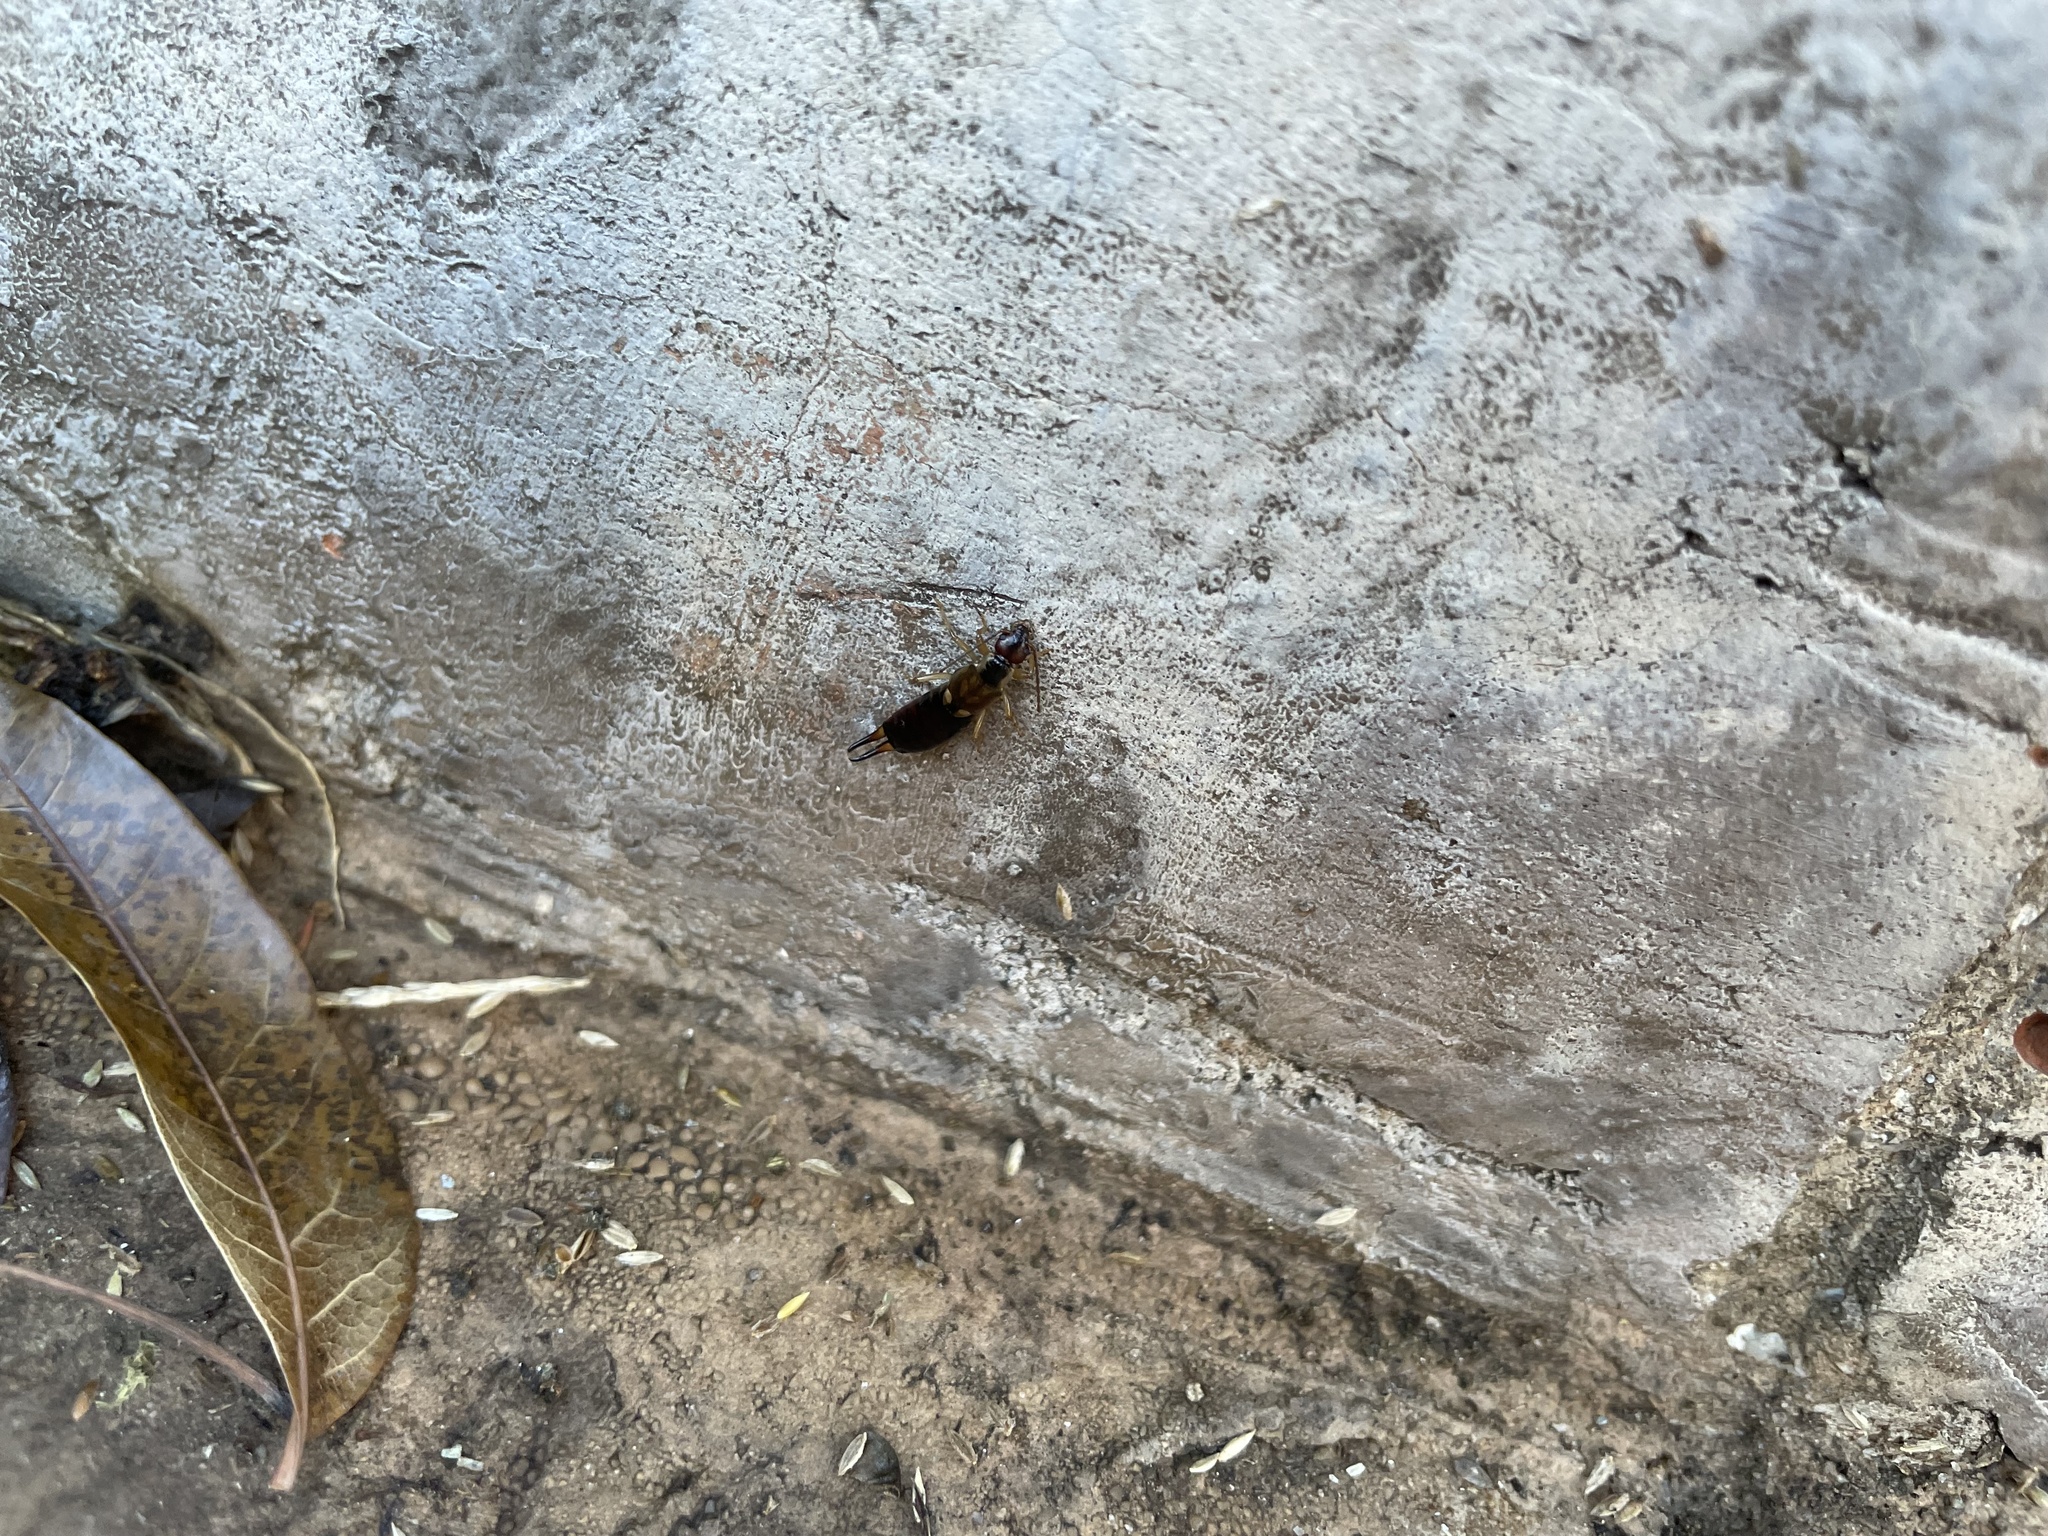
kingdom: Animalia
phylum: Arthropoda
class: Insecta
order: Dermaptera
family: Forficulidae
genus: Forficula
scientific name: Forficula
